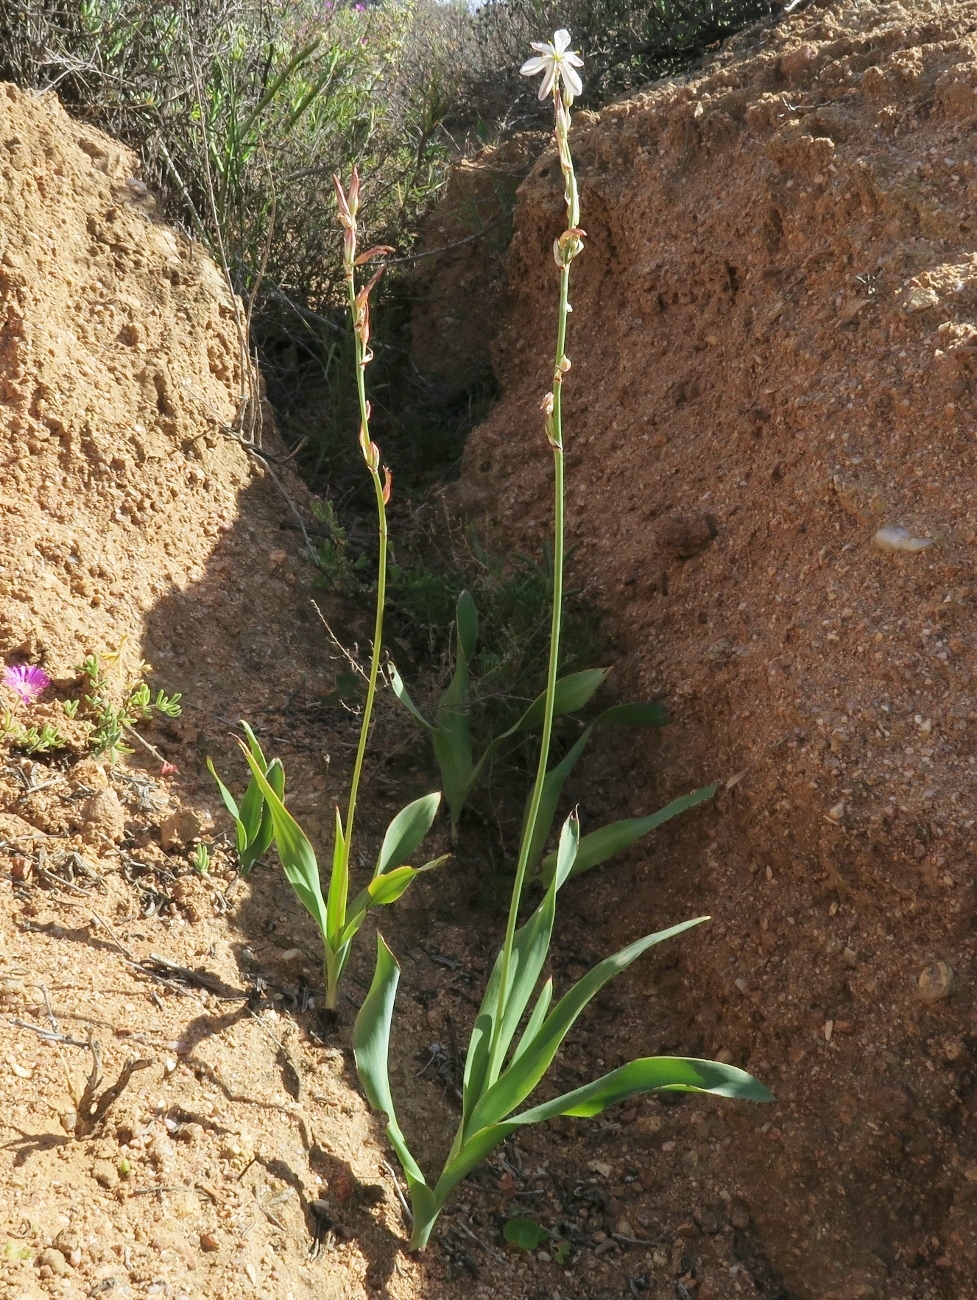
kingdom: Plantae
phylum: Tracheophyta
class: Liliopsida
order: Asparagales
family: Asparagaceae
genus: Chlorophytum
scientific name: Chlorophytum namaquense
